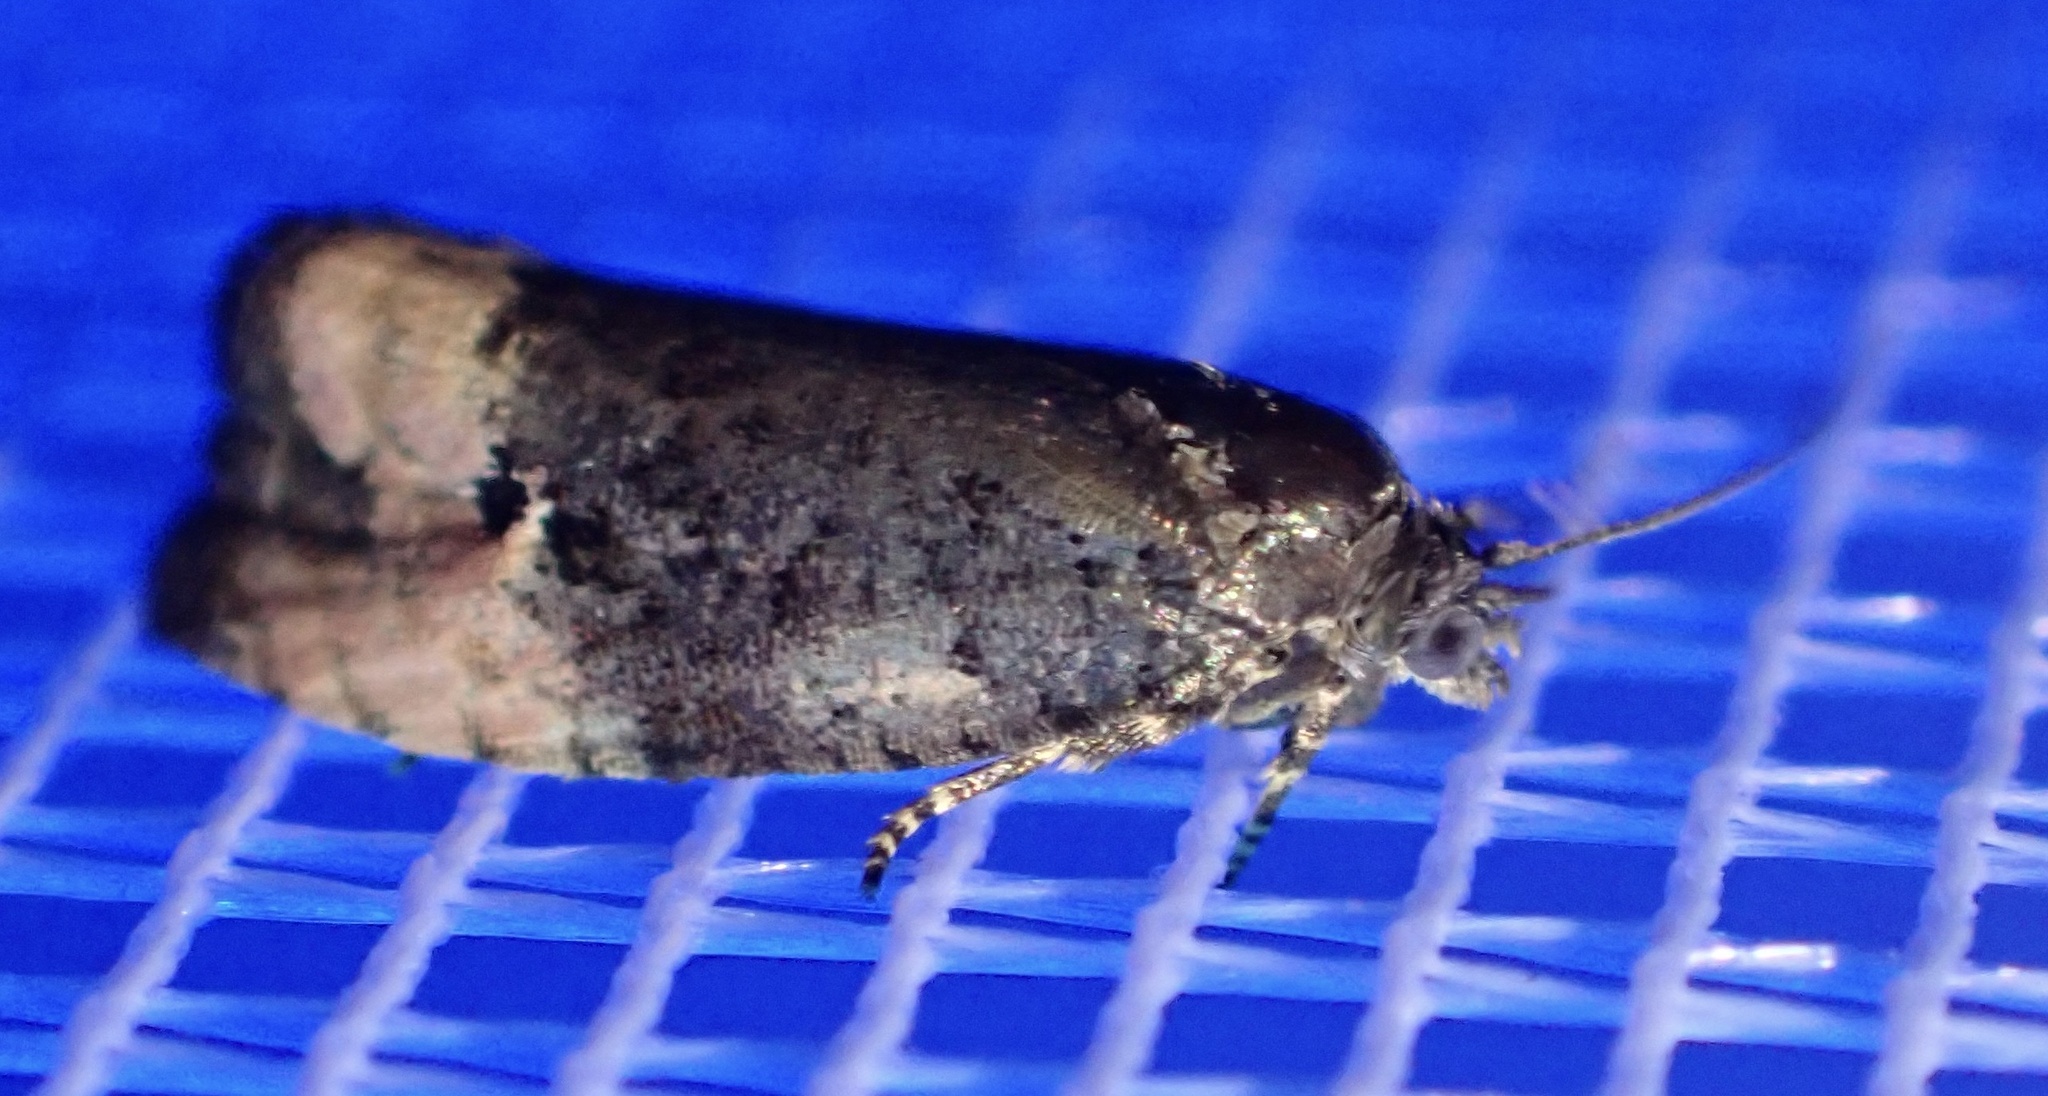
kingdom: Animalia
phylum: Arthropoda
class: Insecta
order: Lepidoptera
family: Tortricidae
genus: Metendothenia
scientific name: Metendothenia atropunctana
